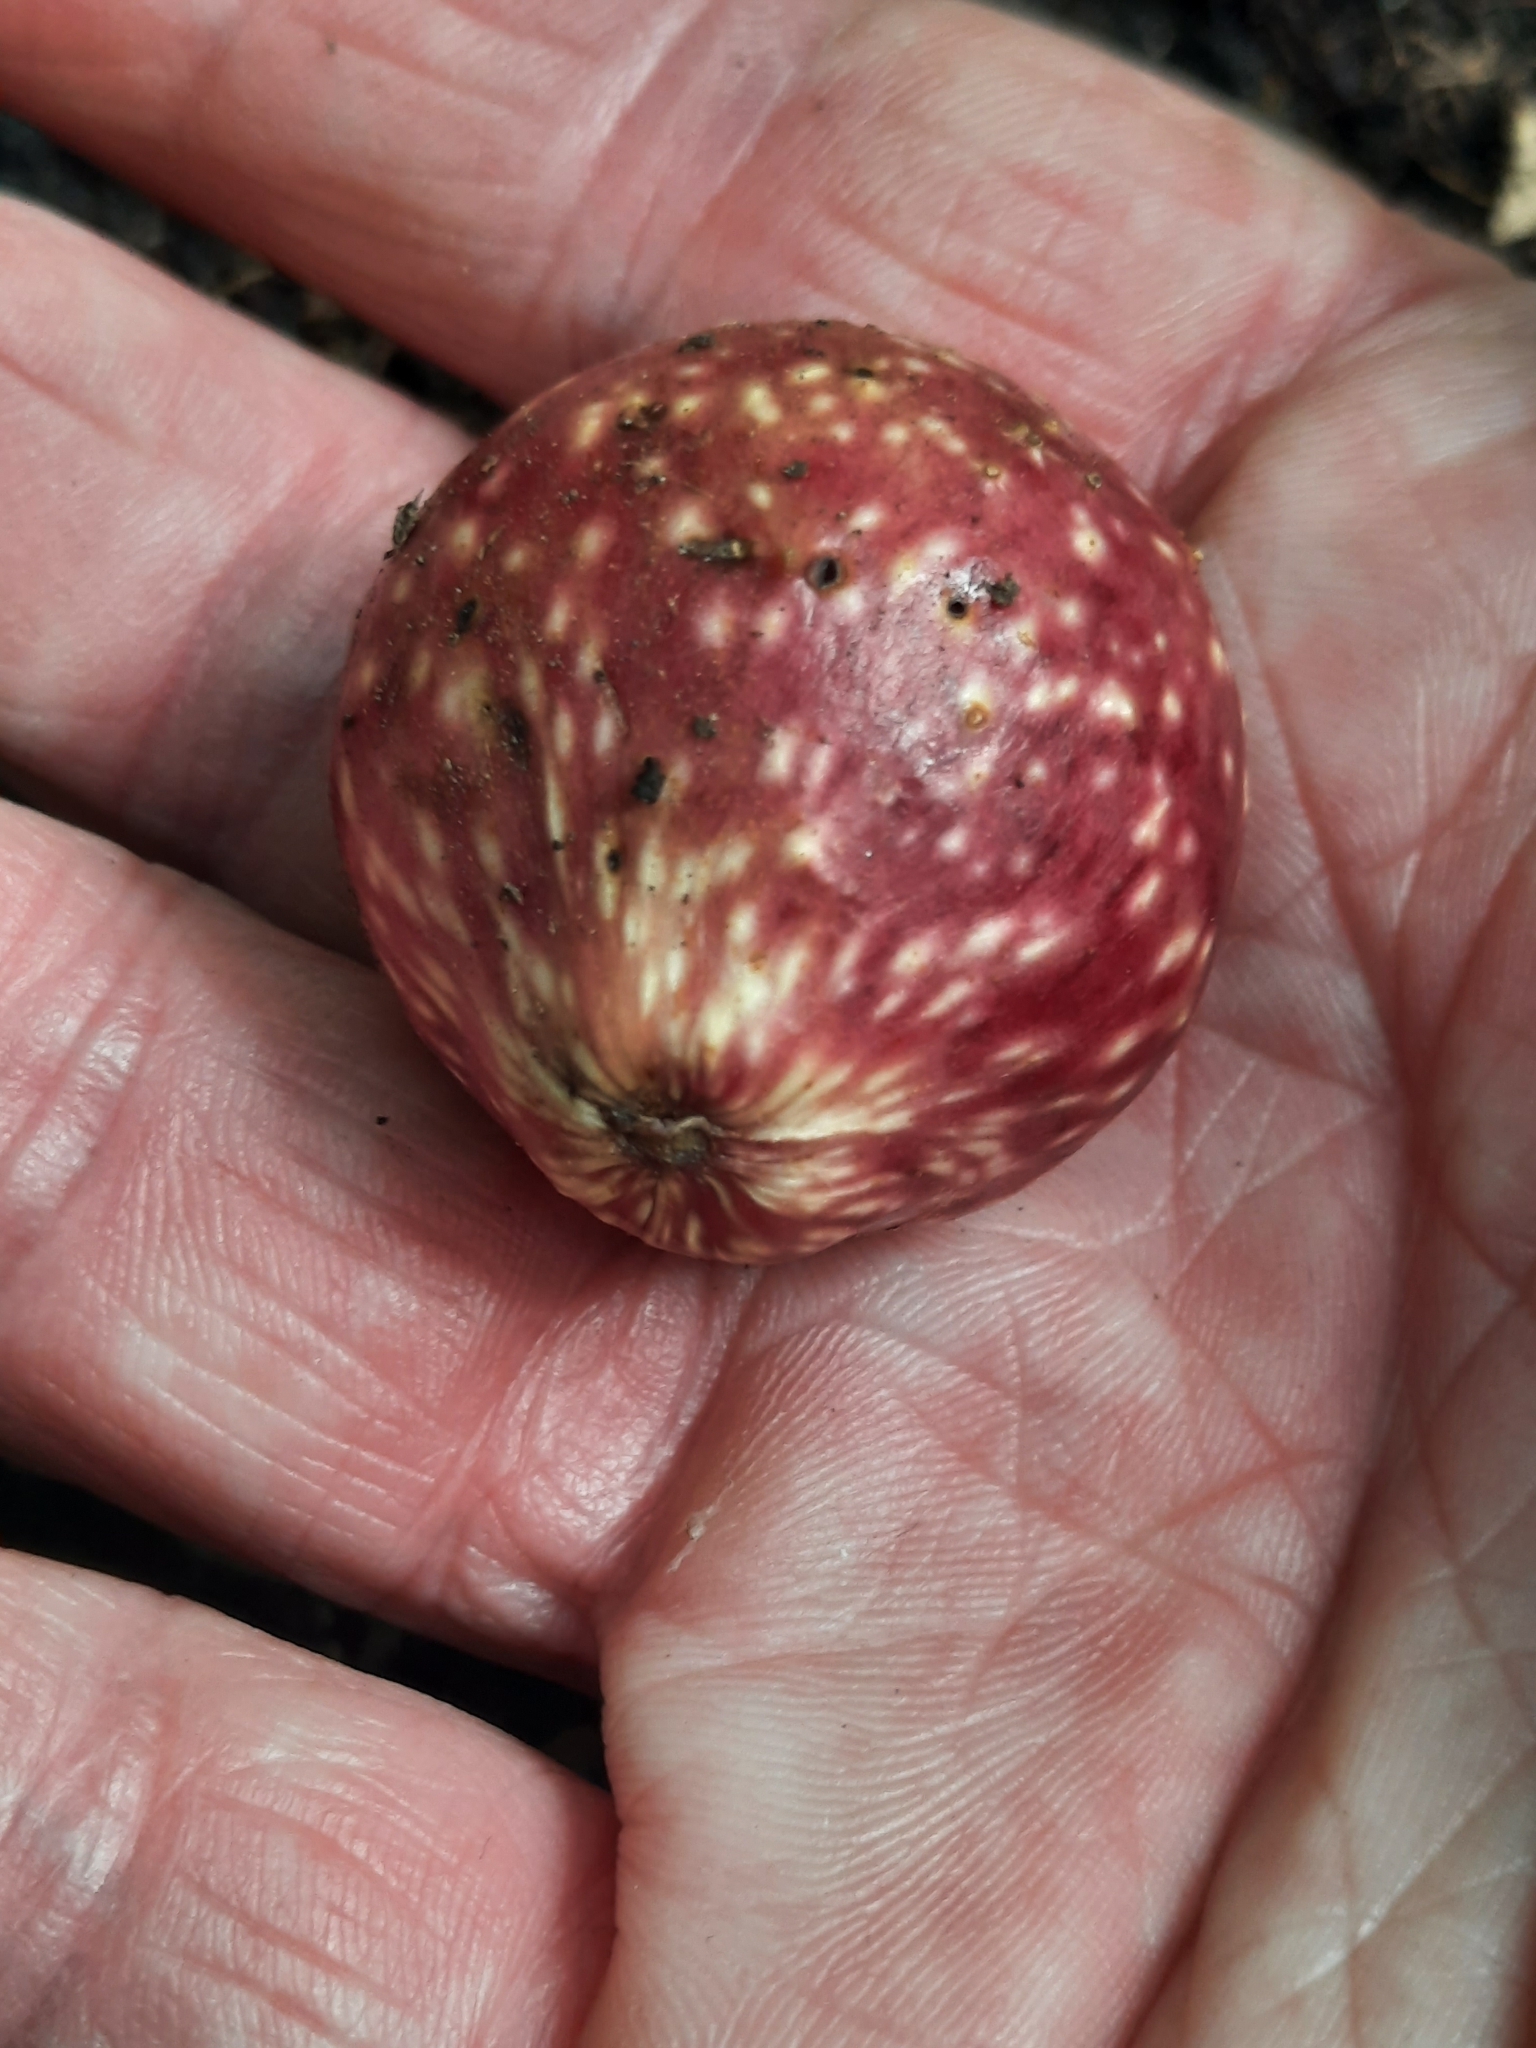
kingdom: Animalia
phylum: Arthropoda
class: Insecta
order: Hymenoptera
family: Cynipidae
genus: Amphibolips
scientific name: Amphibolips
